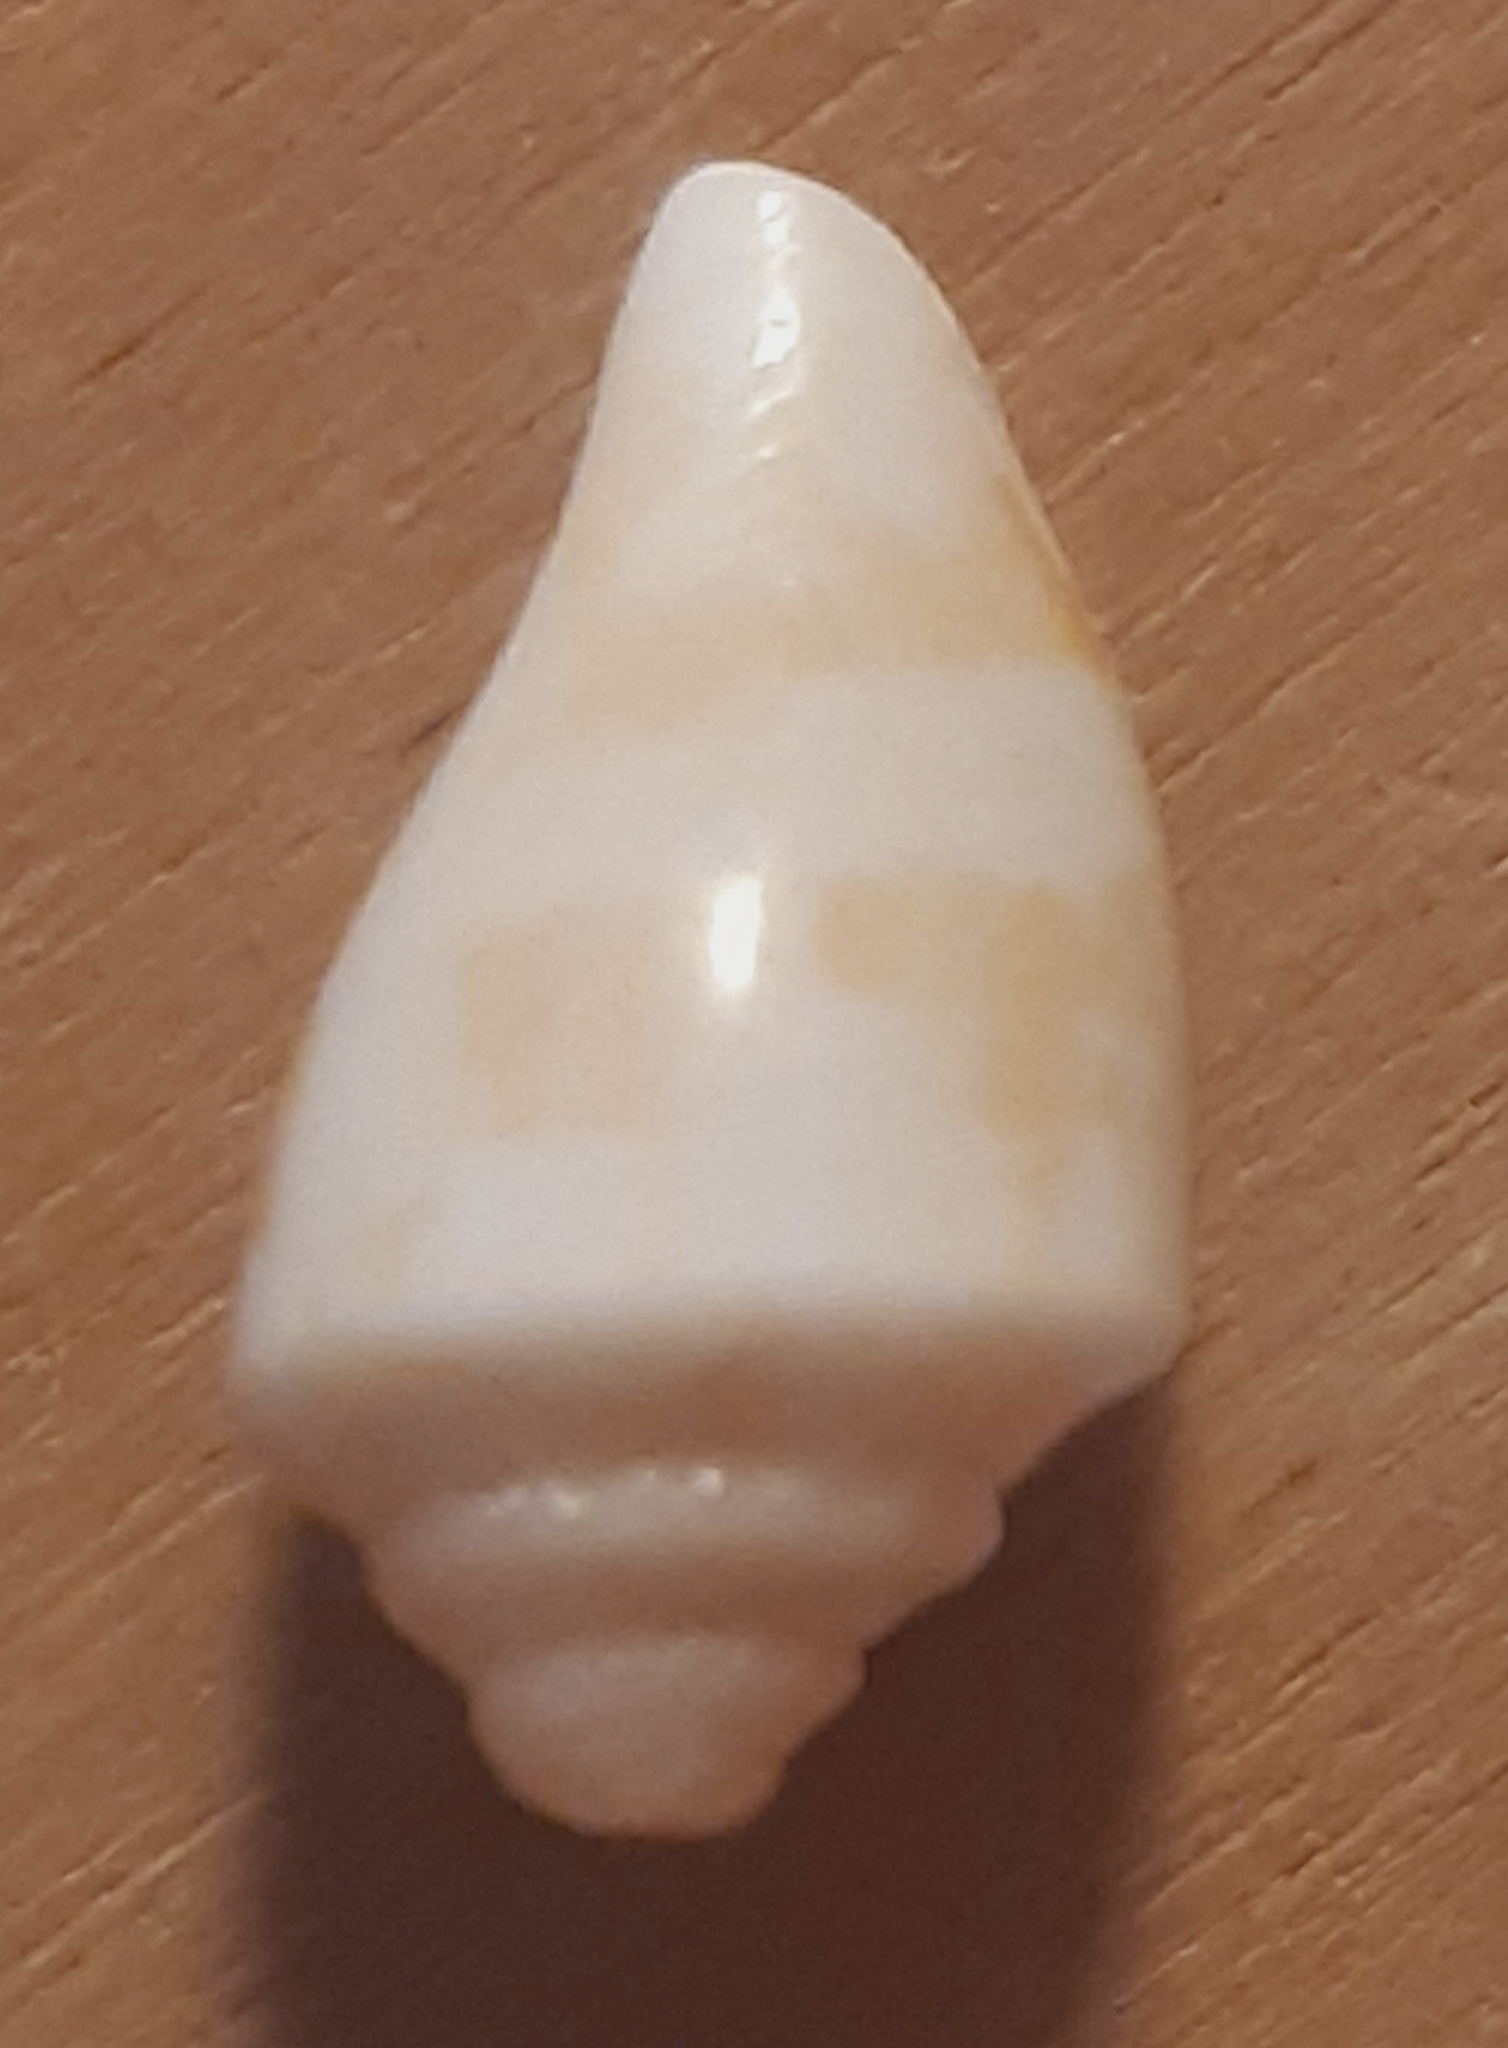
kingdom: Animalia
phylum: Mollusca
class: Gastropoda
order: Littorinimorpha
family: Strombidae
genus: Conomurex
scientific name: Conomurex persicus
